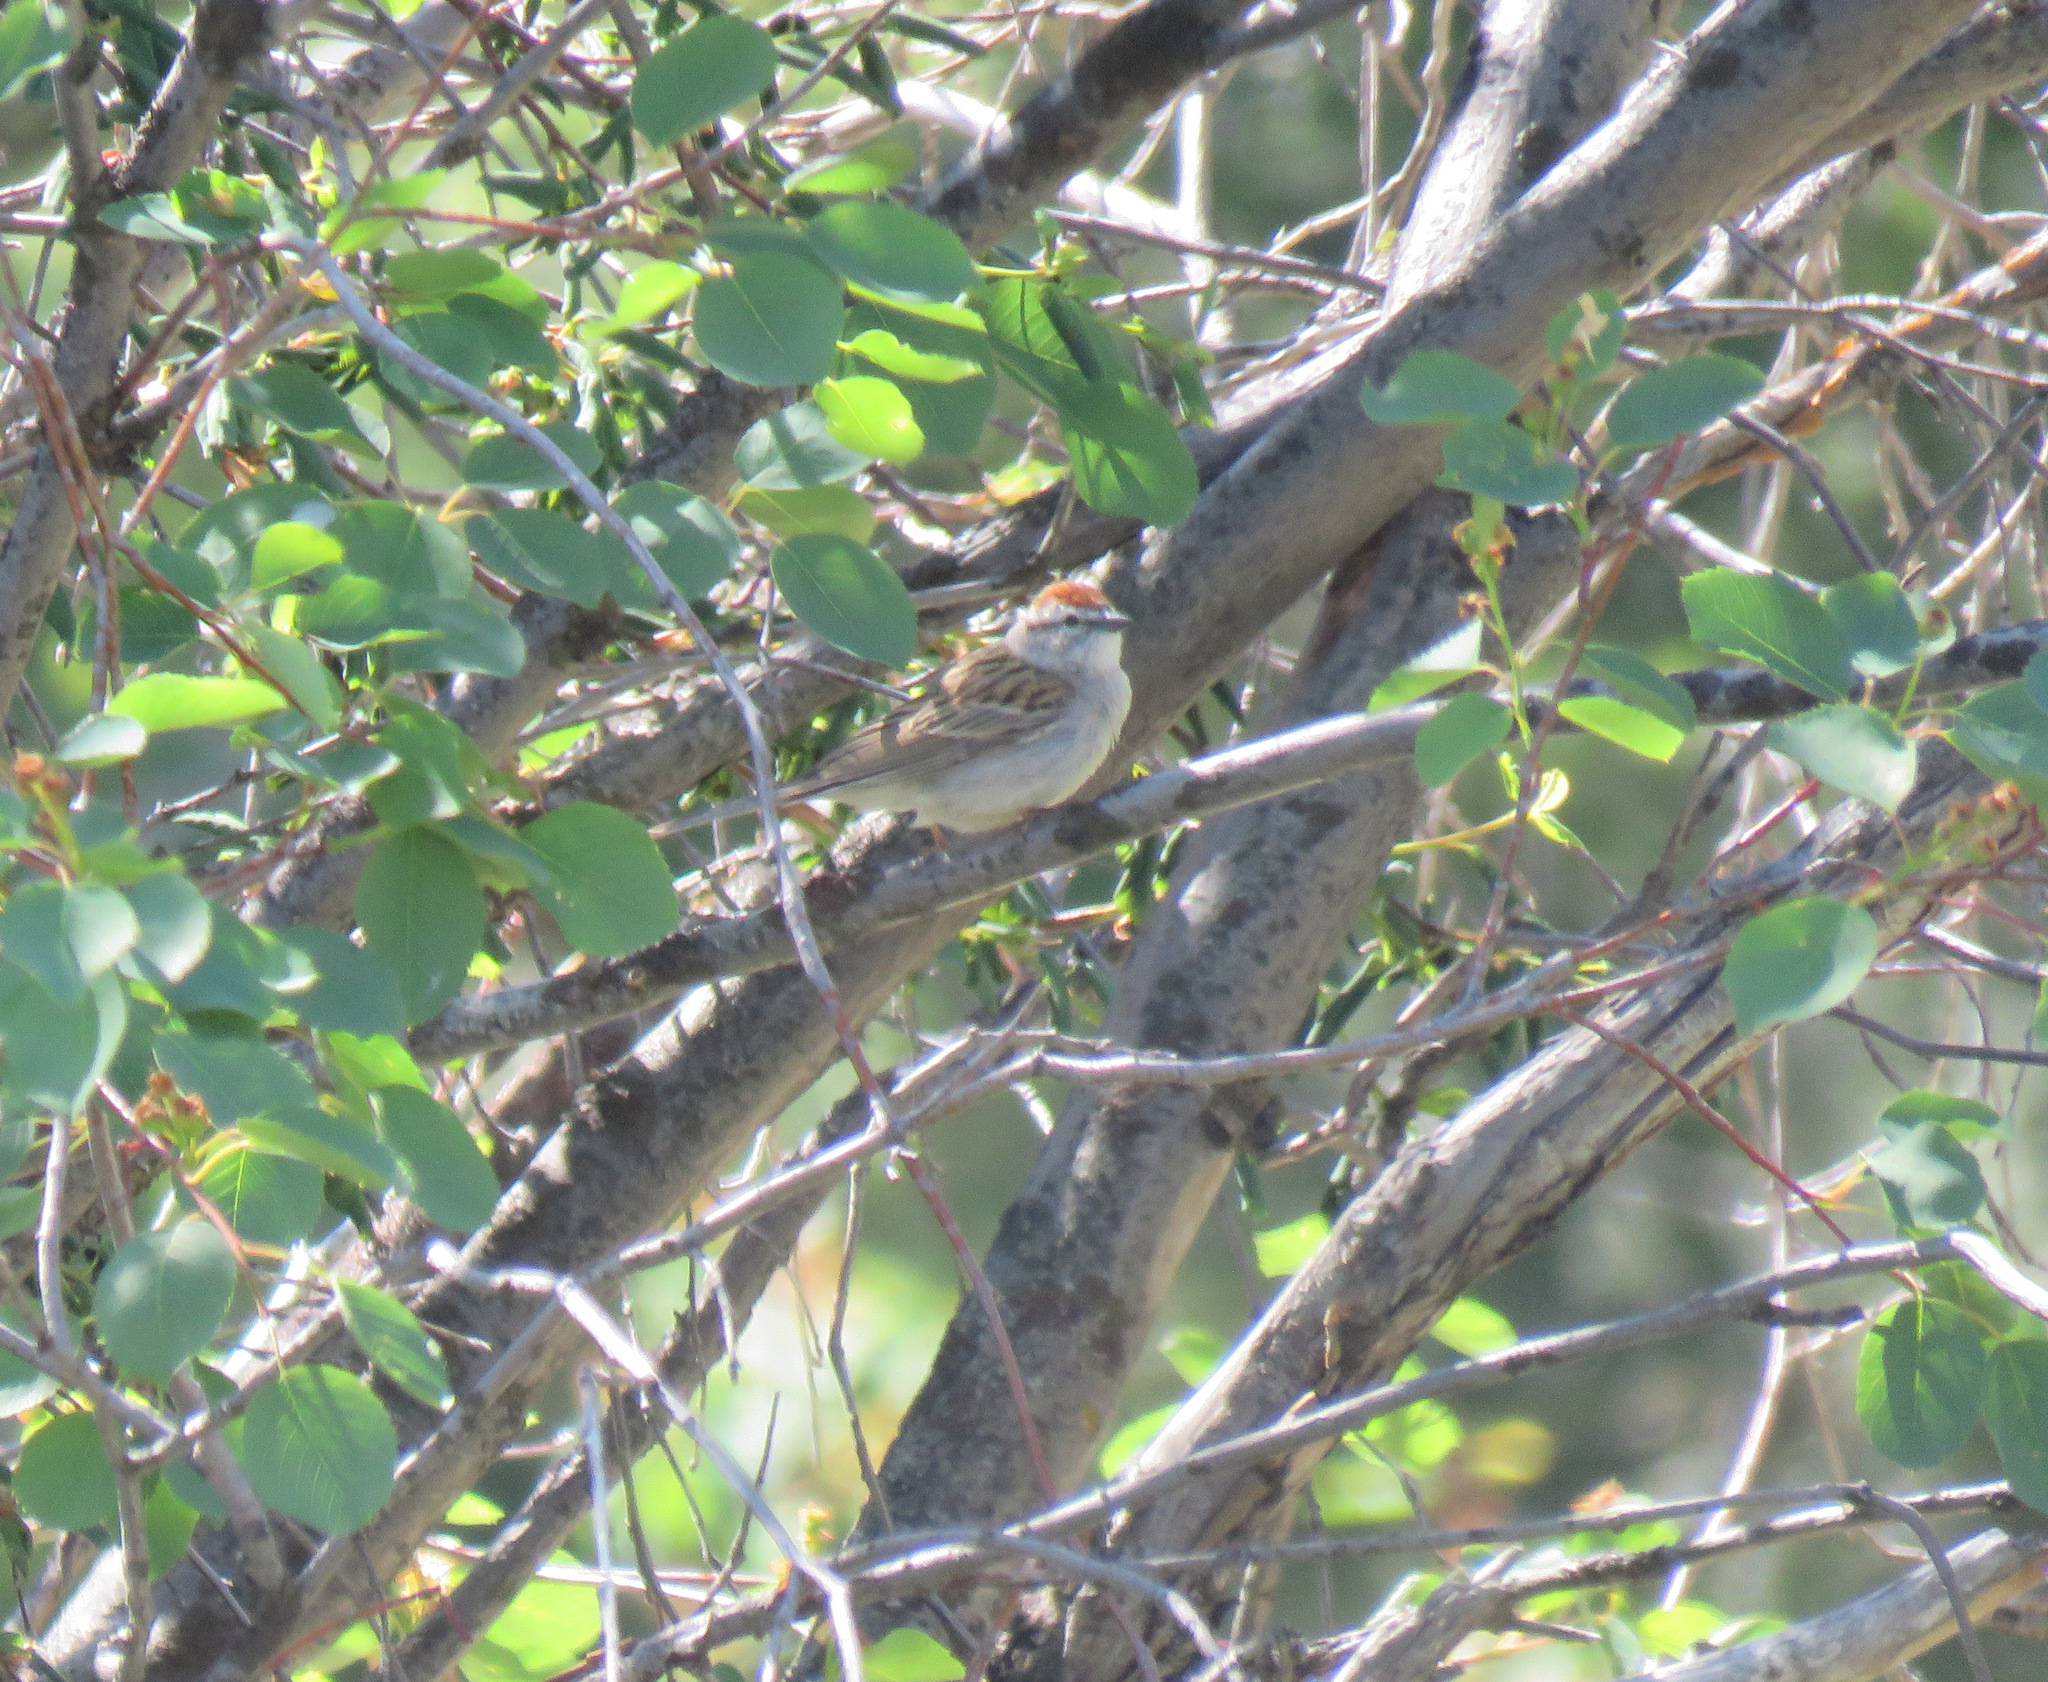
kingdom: Animalia
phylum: Chordata
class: Aves
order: Passeriformes
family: Passerellidae
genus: Spizella
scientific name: Spizella passerina
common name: Chipping sparrow
